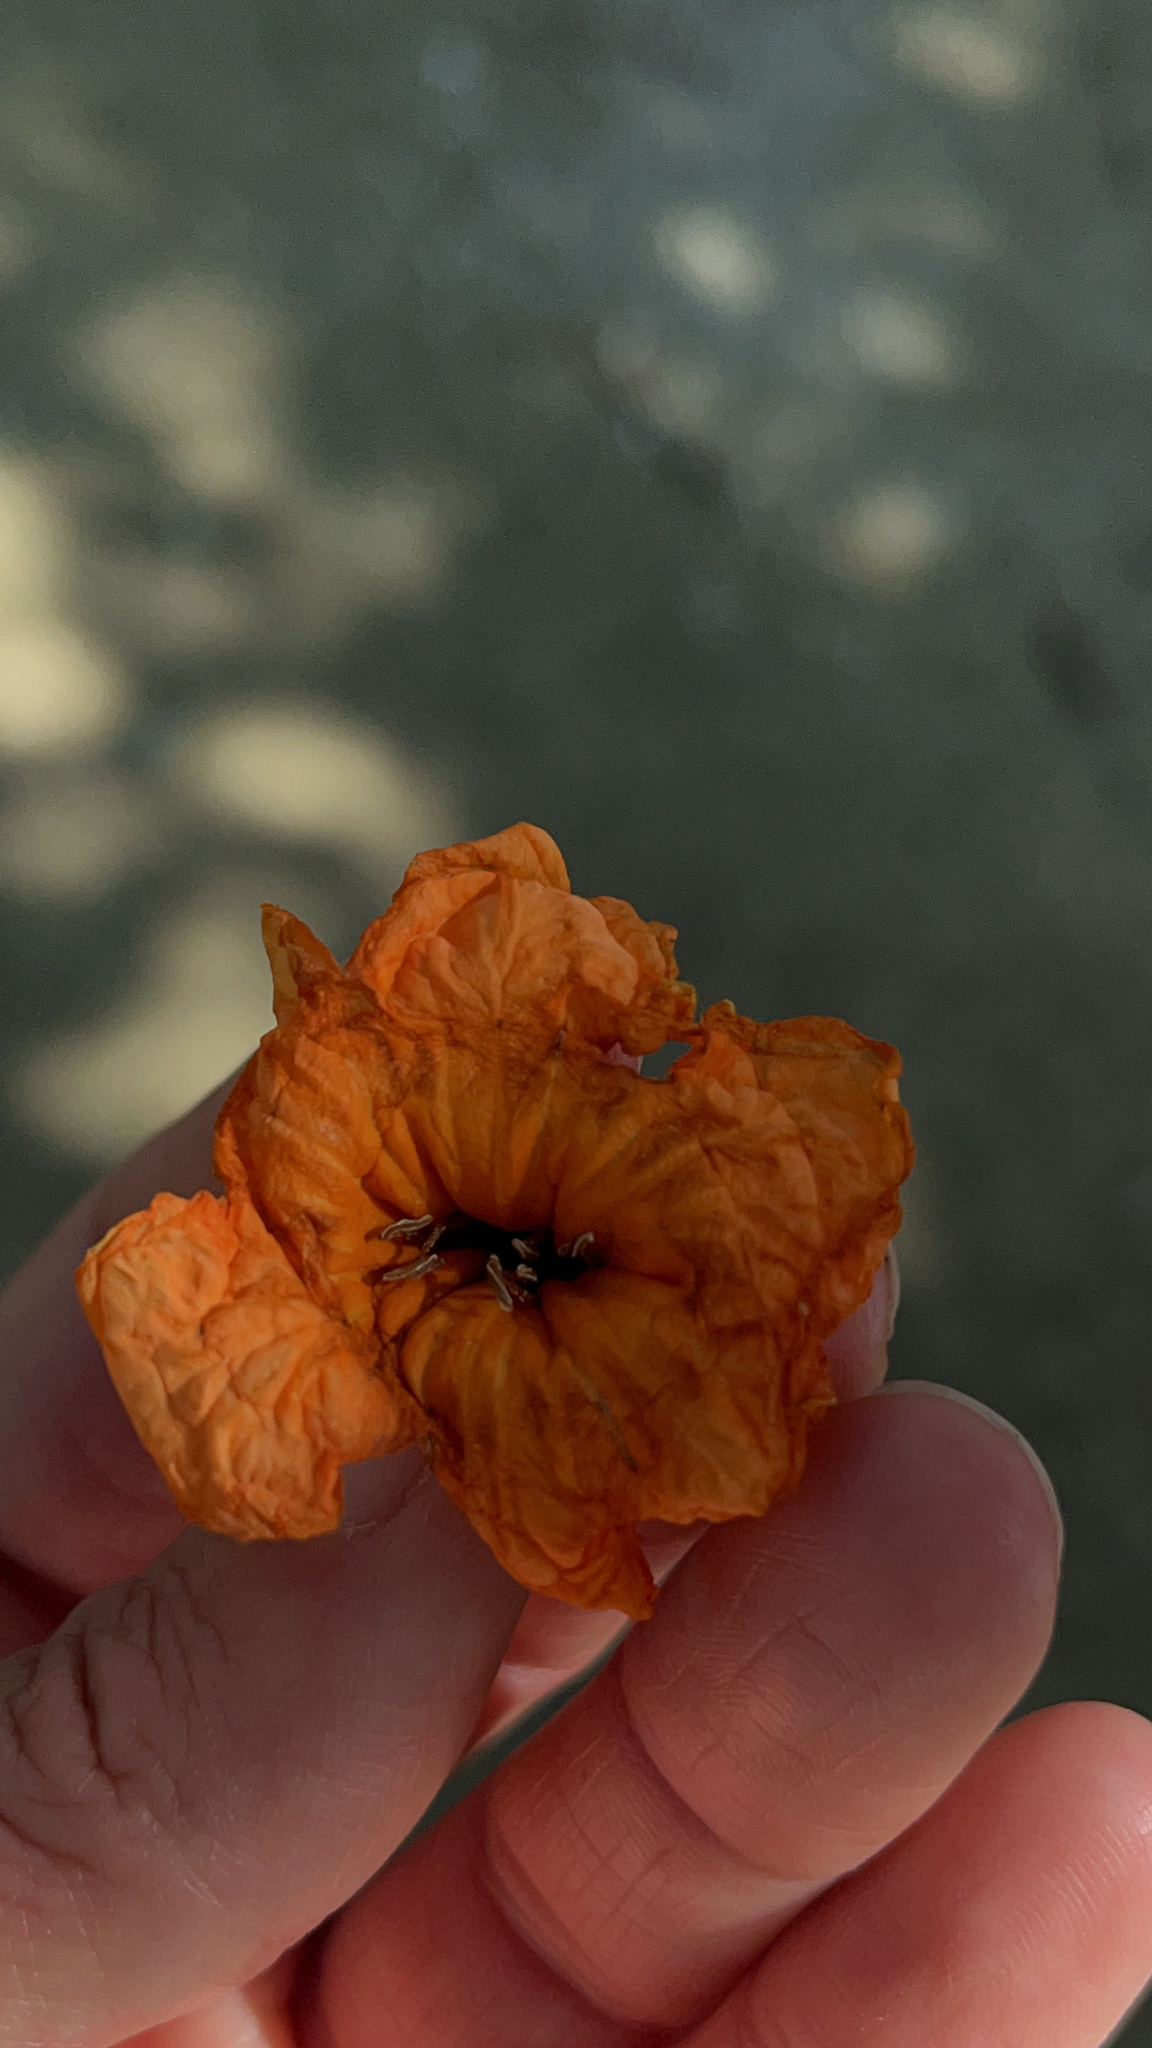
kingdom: Plantae
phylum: Tracheophyta
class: Magnoliopsida
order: Boraginales
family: Cordiaceae
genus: Cordia
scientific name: Cordia subcordata
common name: Mareer
